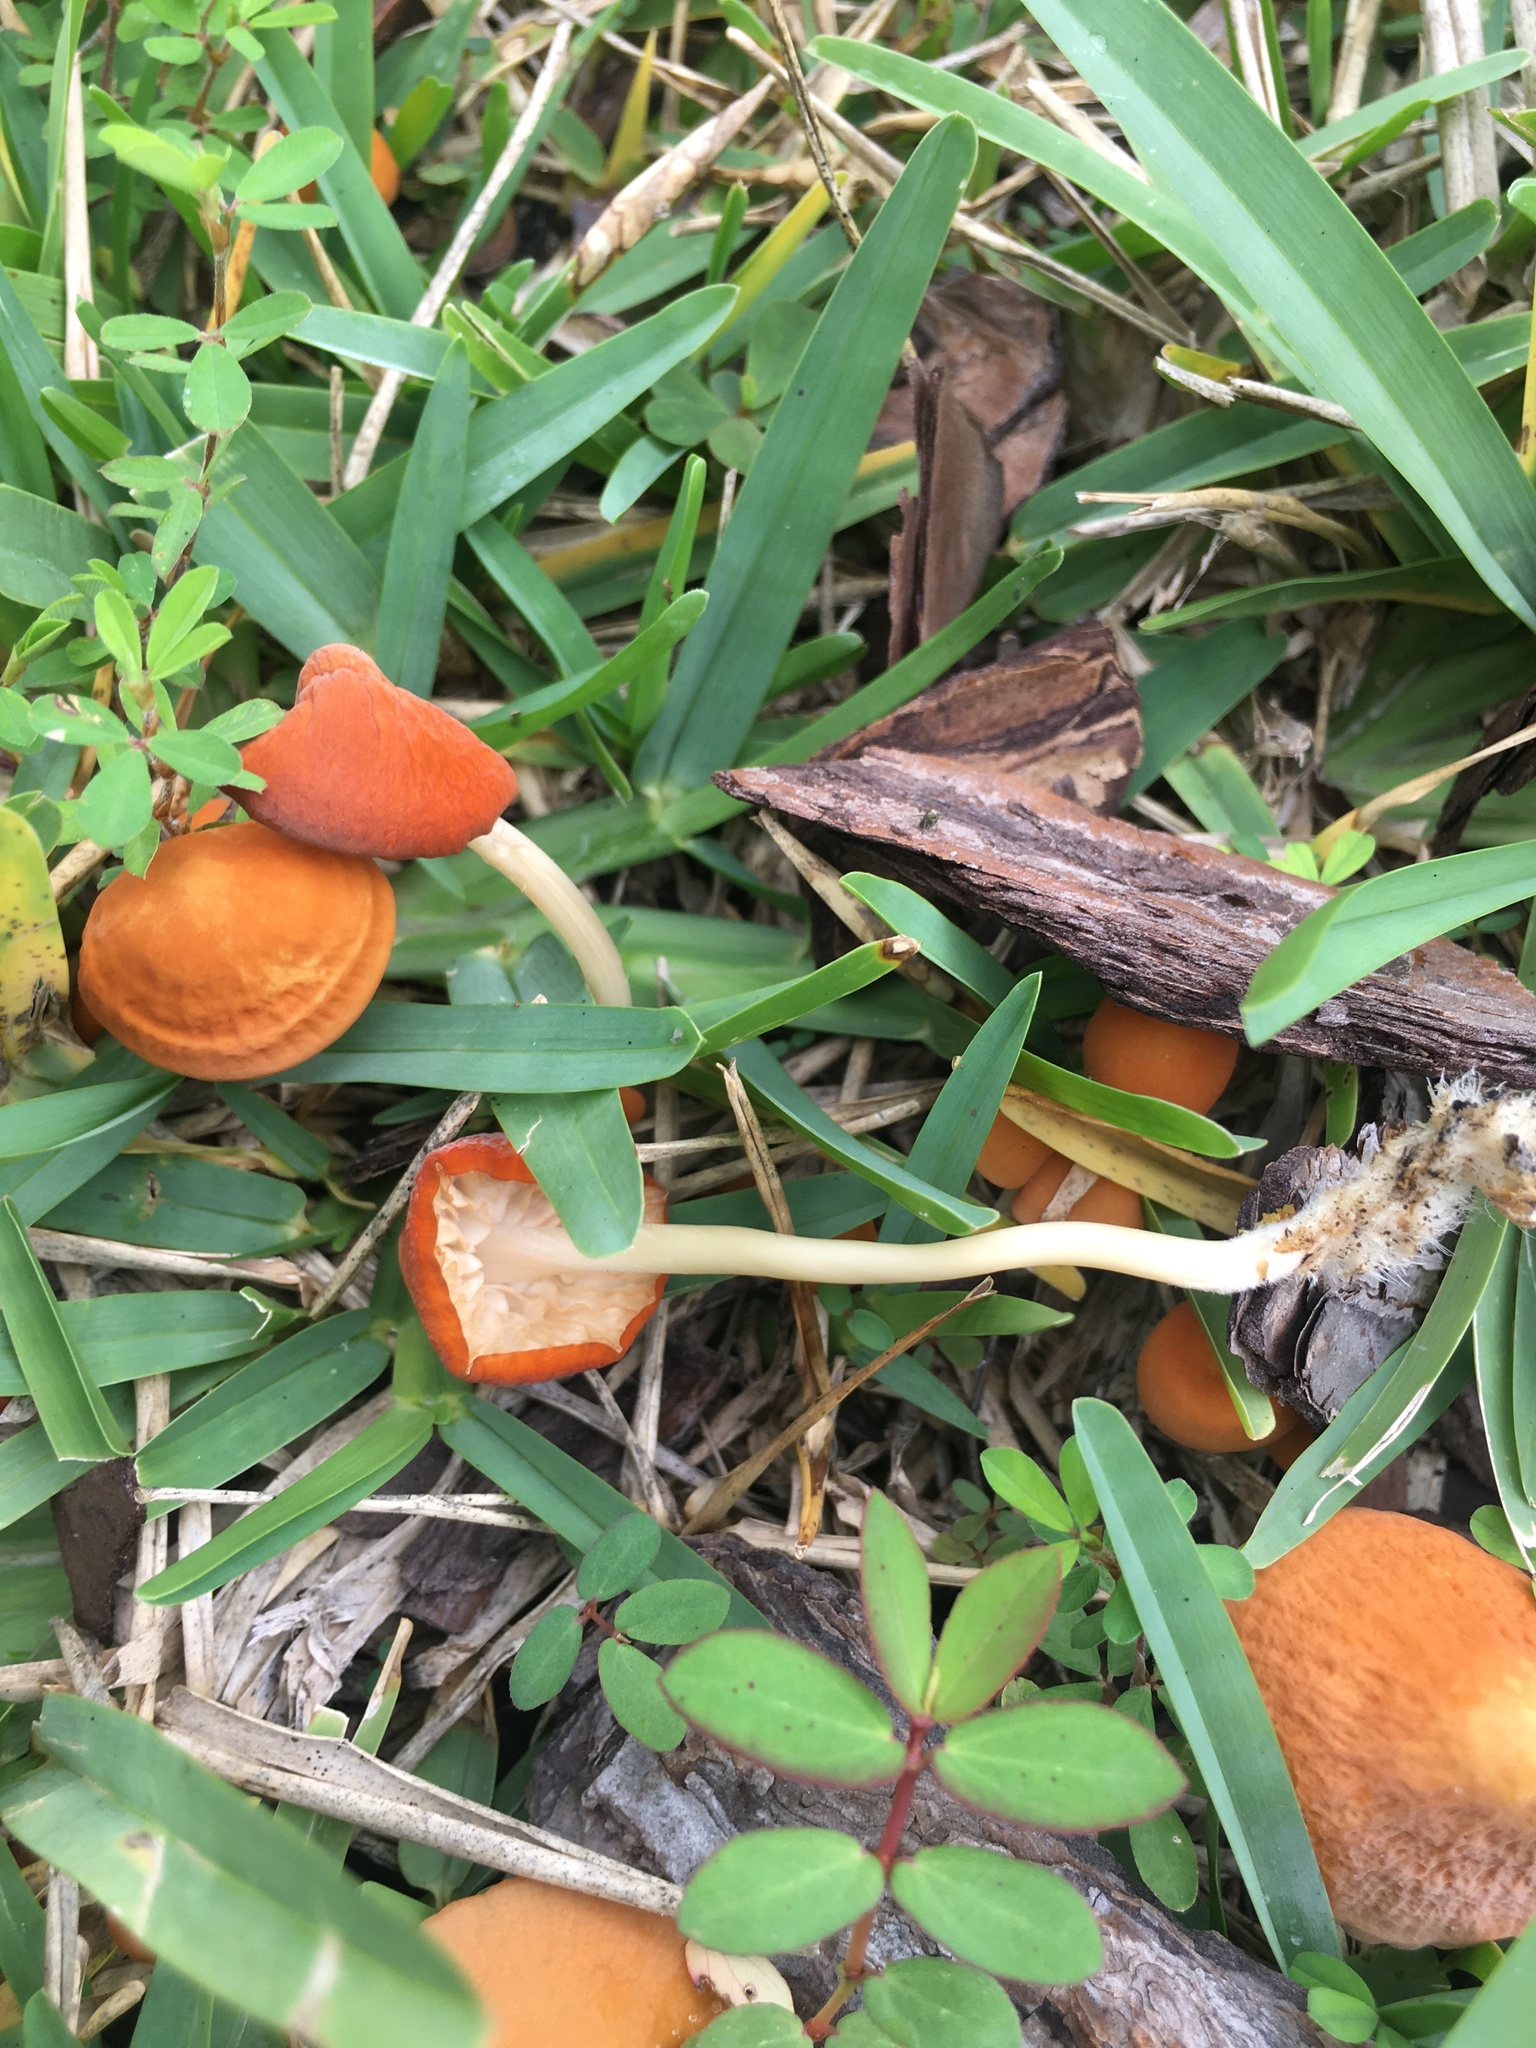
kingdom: Fungi
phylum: Basidiomycota
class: Agaricomycetes
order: Agaricales
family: Marasmiaceae
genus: Marasmius
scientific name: Marasmius vagus
